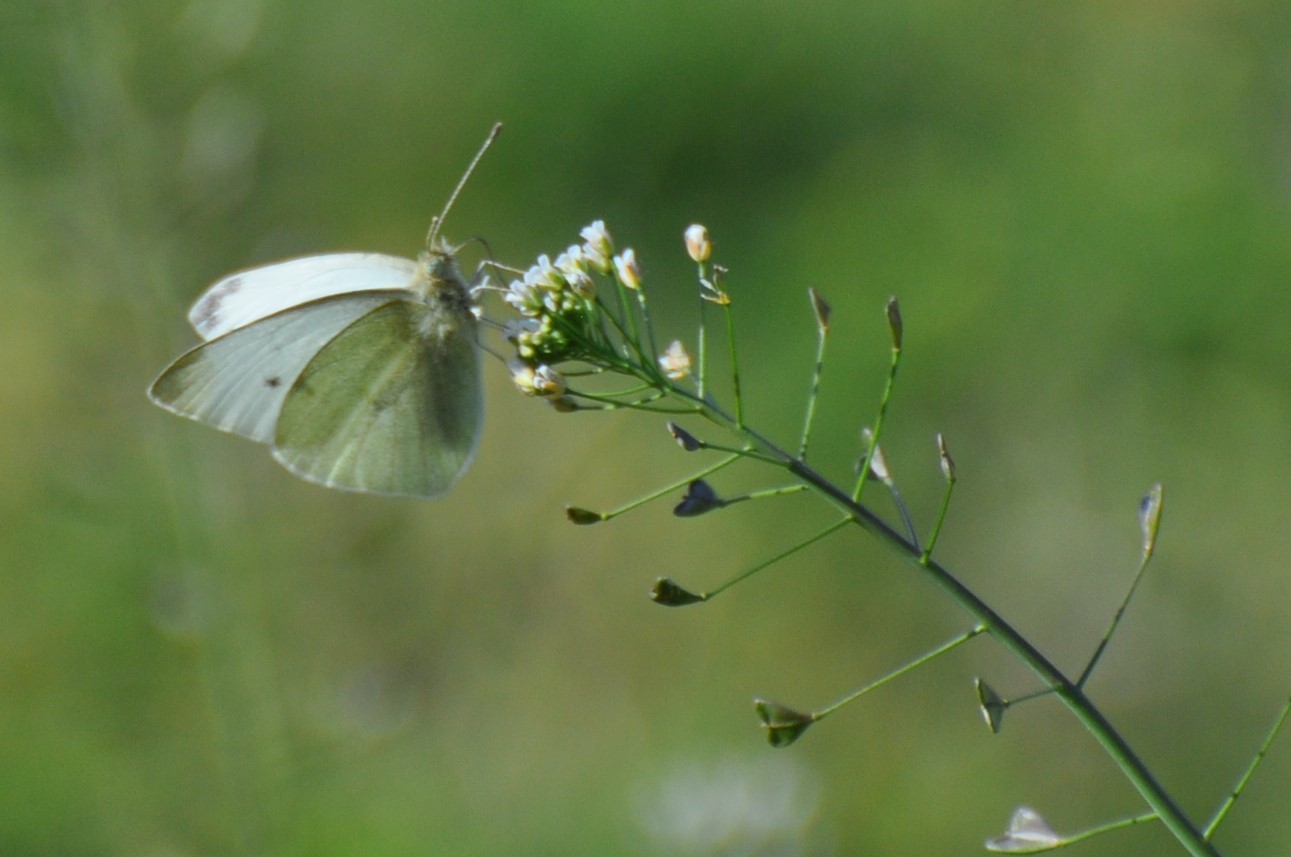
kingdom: Animalia
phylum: Arthropoda
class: Insecta
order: Lepidoptera
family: Pieridae
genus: Pieris
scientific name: Pieris rapae
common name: Small white
